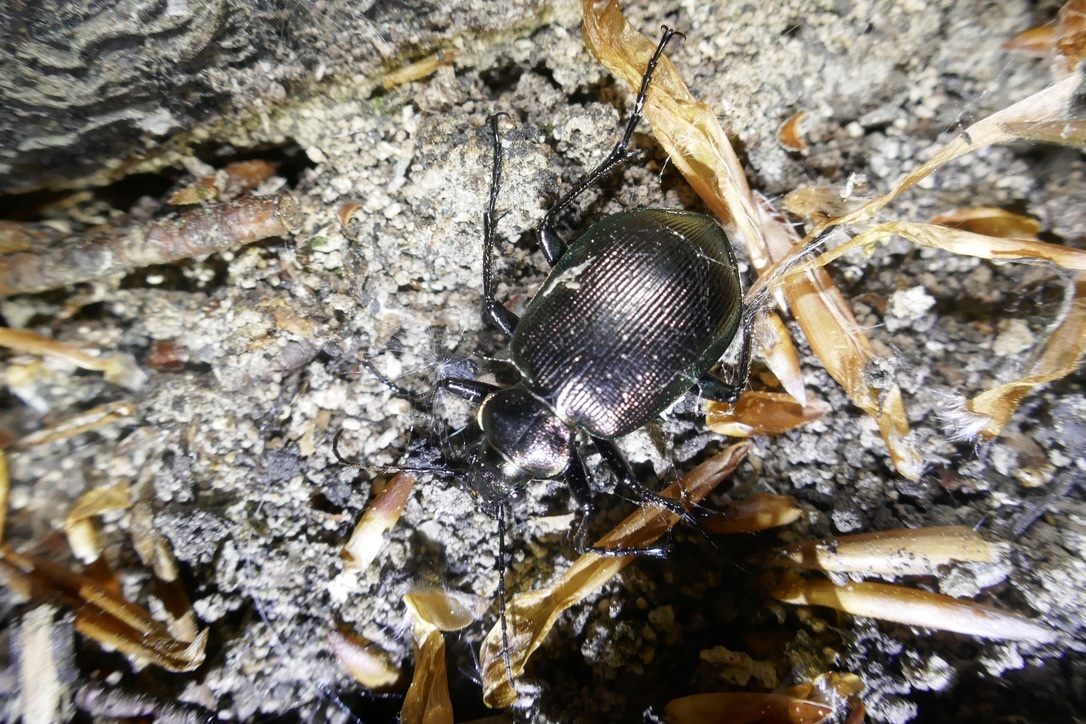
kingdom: Animalia
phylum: Arthropoda
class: Insecta
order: Coleoptera
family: Carabidae
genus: Calosoma
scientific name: Calosoma inquisitor
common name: Caterpillar-hunter
